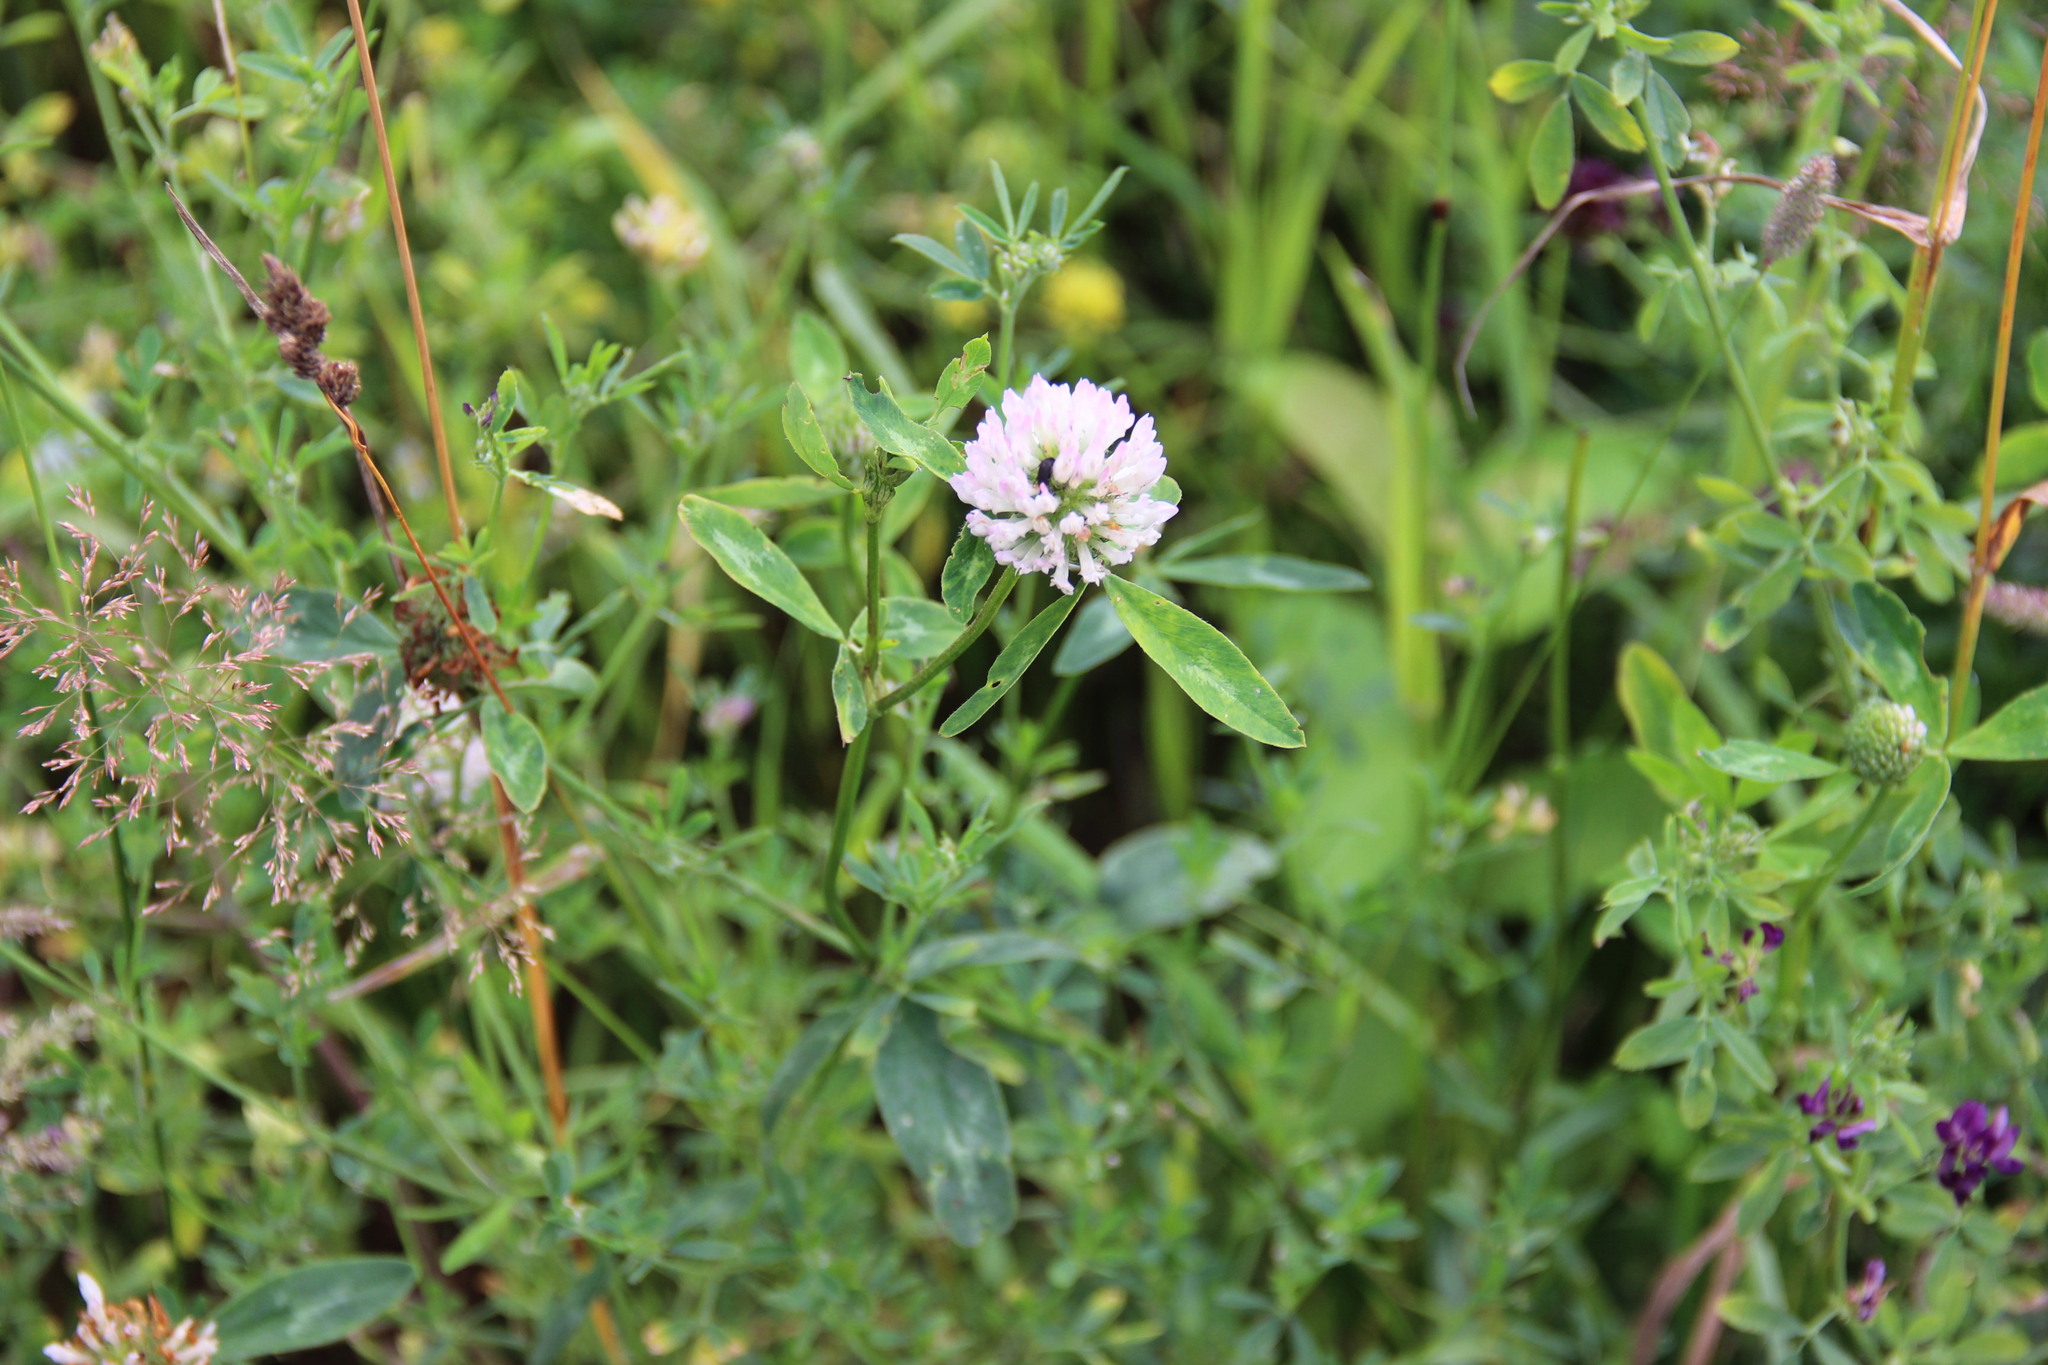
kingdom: Plantae
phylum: Tracheophyta
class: Magnoliopsida
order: Fabales
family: Fabaceae
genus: Trifolium
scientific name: Trifolium pratense
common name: Red clover
